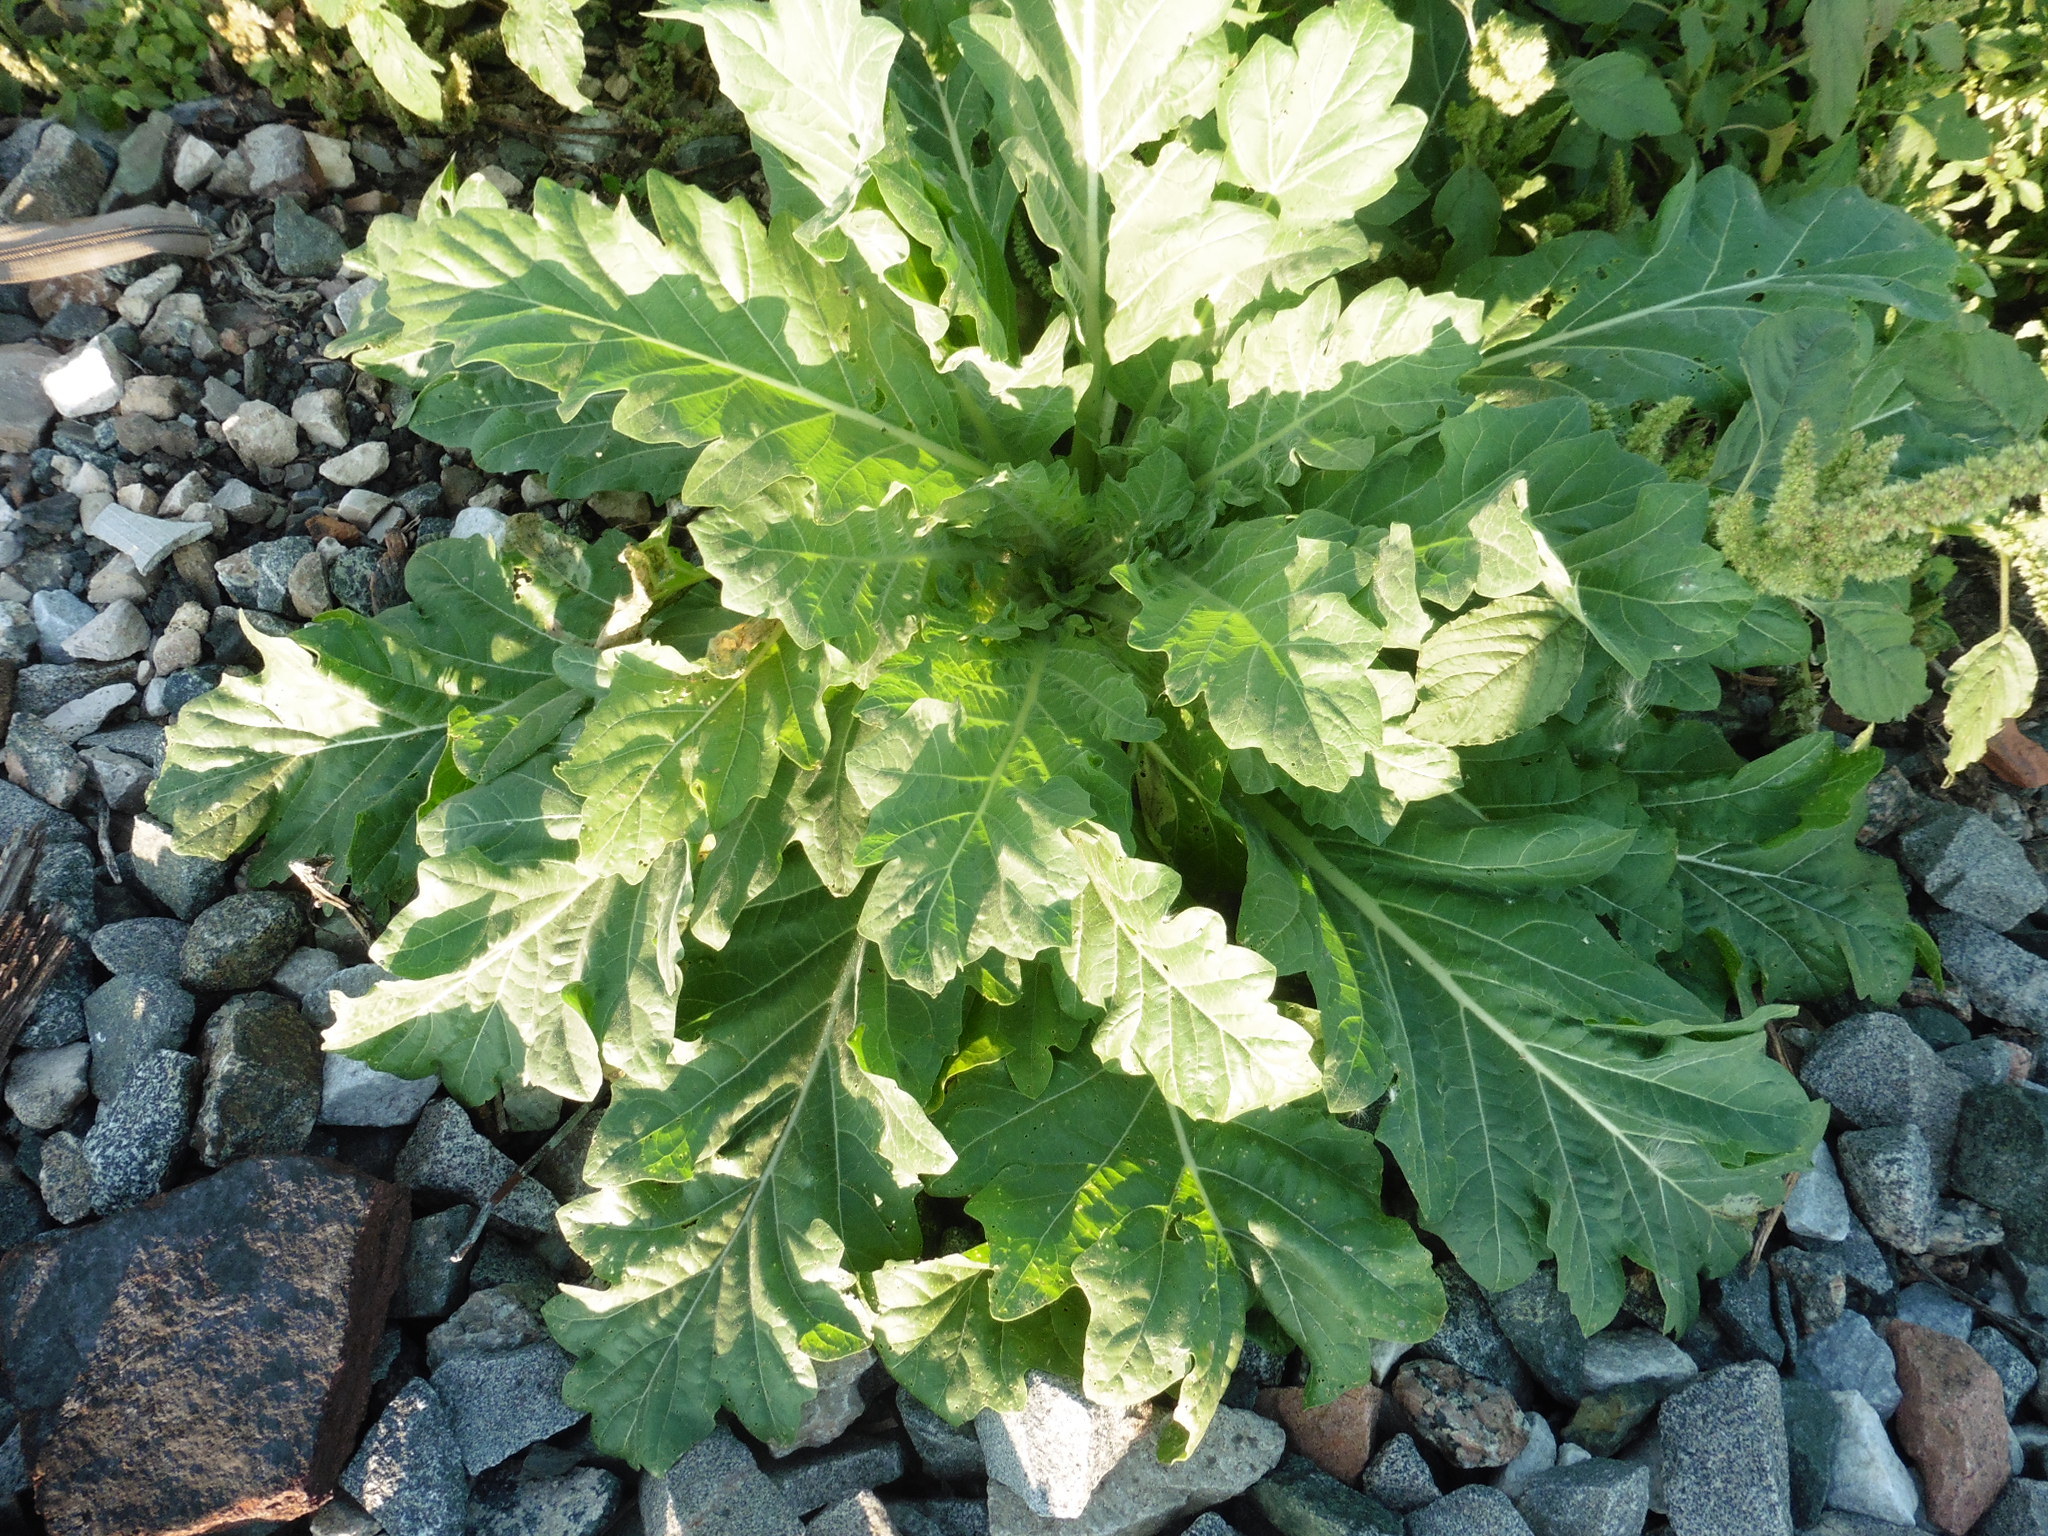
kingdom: Plantae
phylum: Tracheophyta
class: Magnoliopsida
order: Solanales
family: Solanaceae
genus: Hyoscyamus
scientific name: Hyoscyamus niger
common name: Henbane
